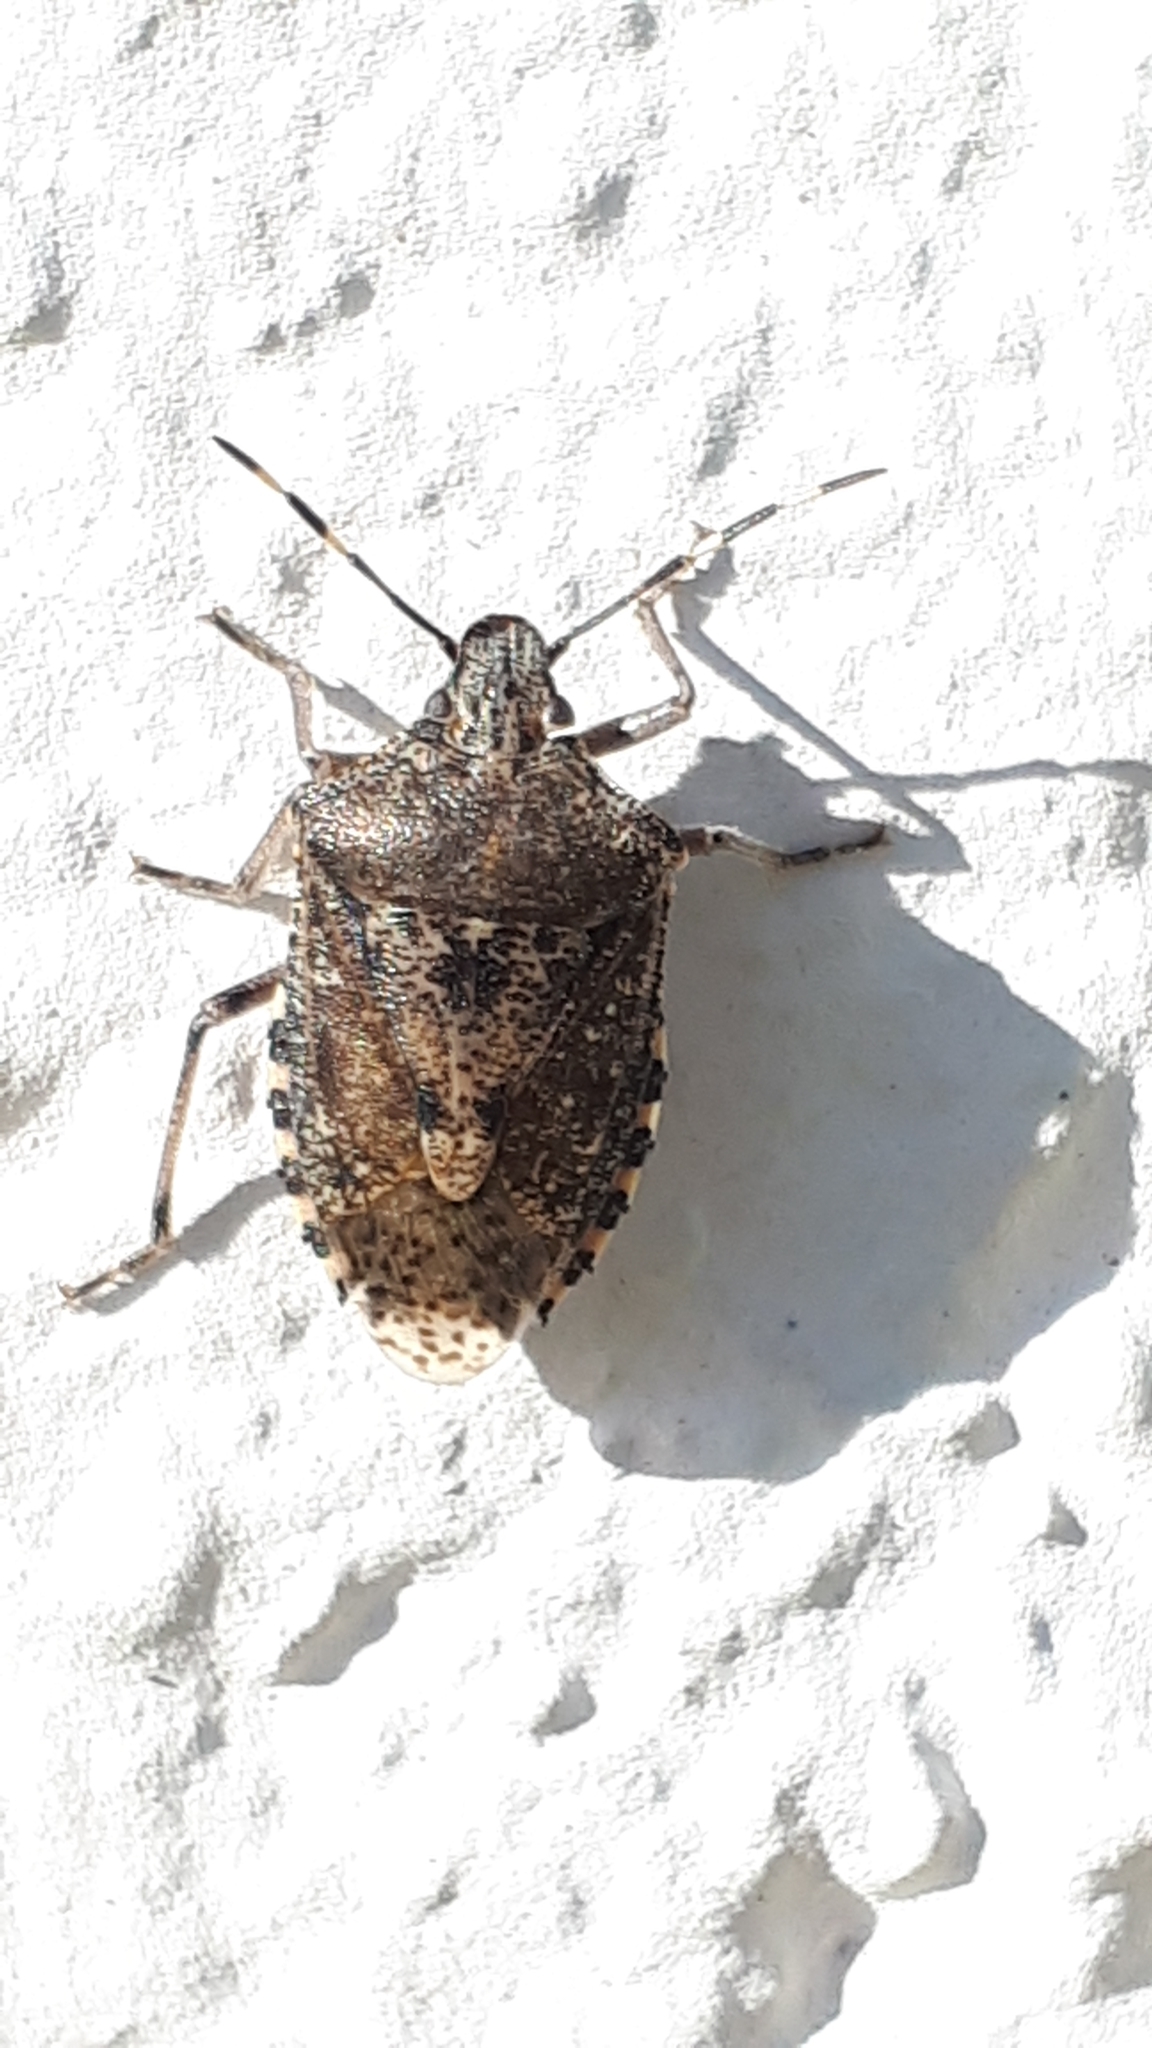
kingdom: Animalia
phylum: Arthropoda
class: Insecta
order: Hemiptera
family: Pentatomidae
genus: Rhaphigaster
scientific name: Rhaphigaster nebulosa
